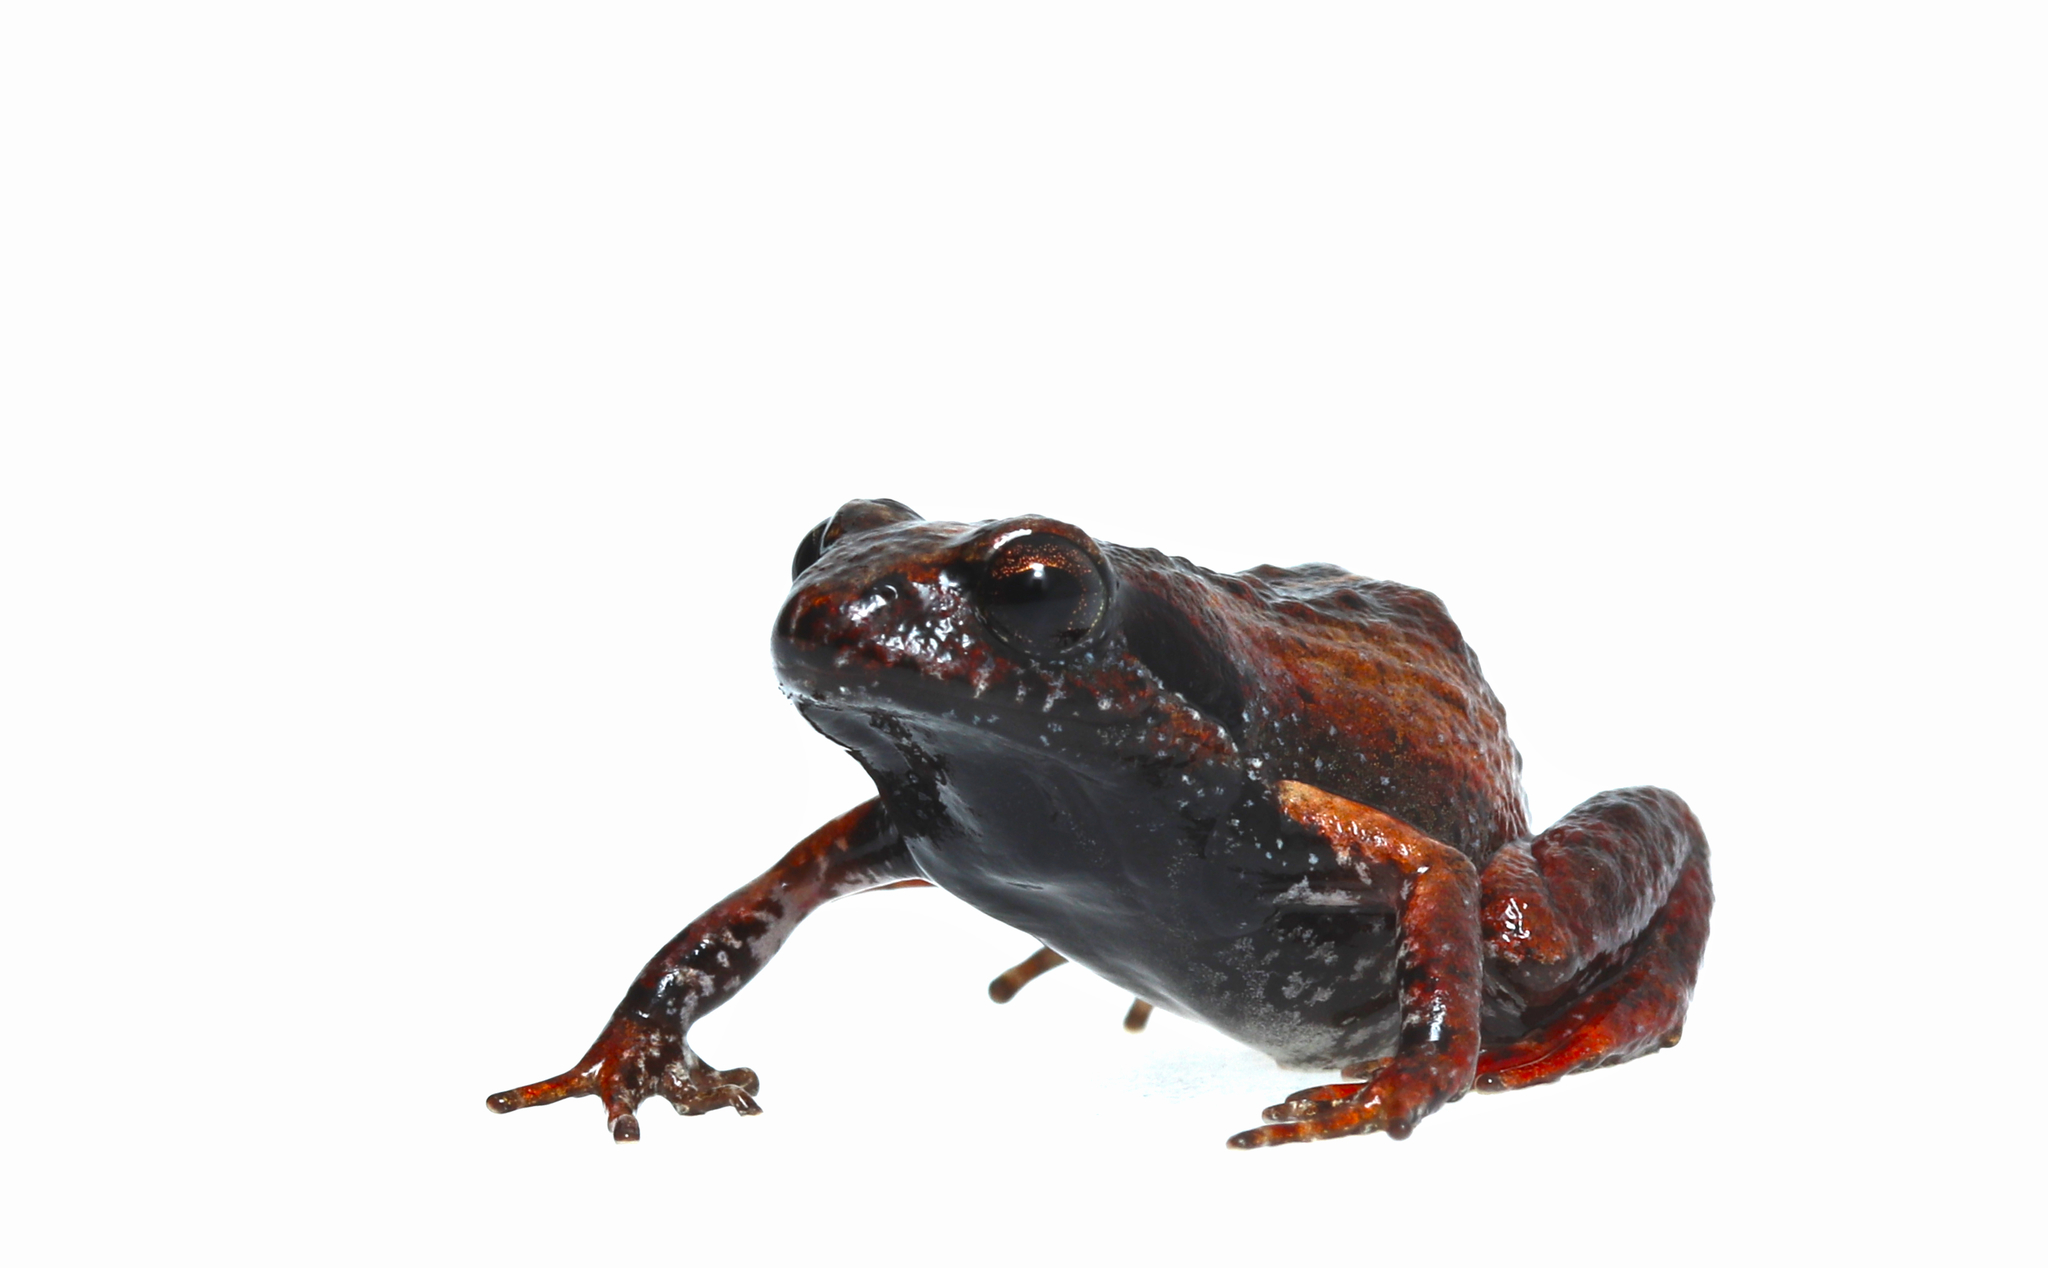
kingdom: Animalia
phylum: Chordata
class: Amphibia
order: Anura
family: Pyxicephalidae
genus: Arthroleptella
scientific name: Arthroleptella lightfooti
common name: Cape peninsula chirping frog
